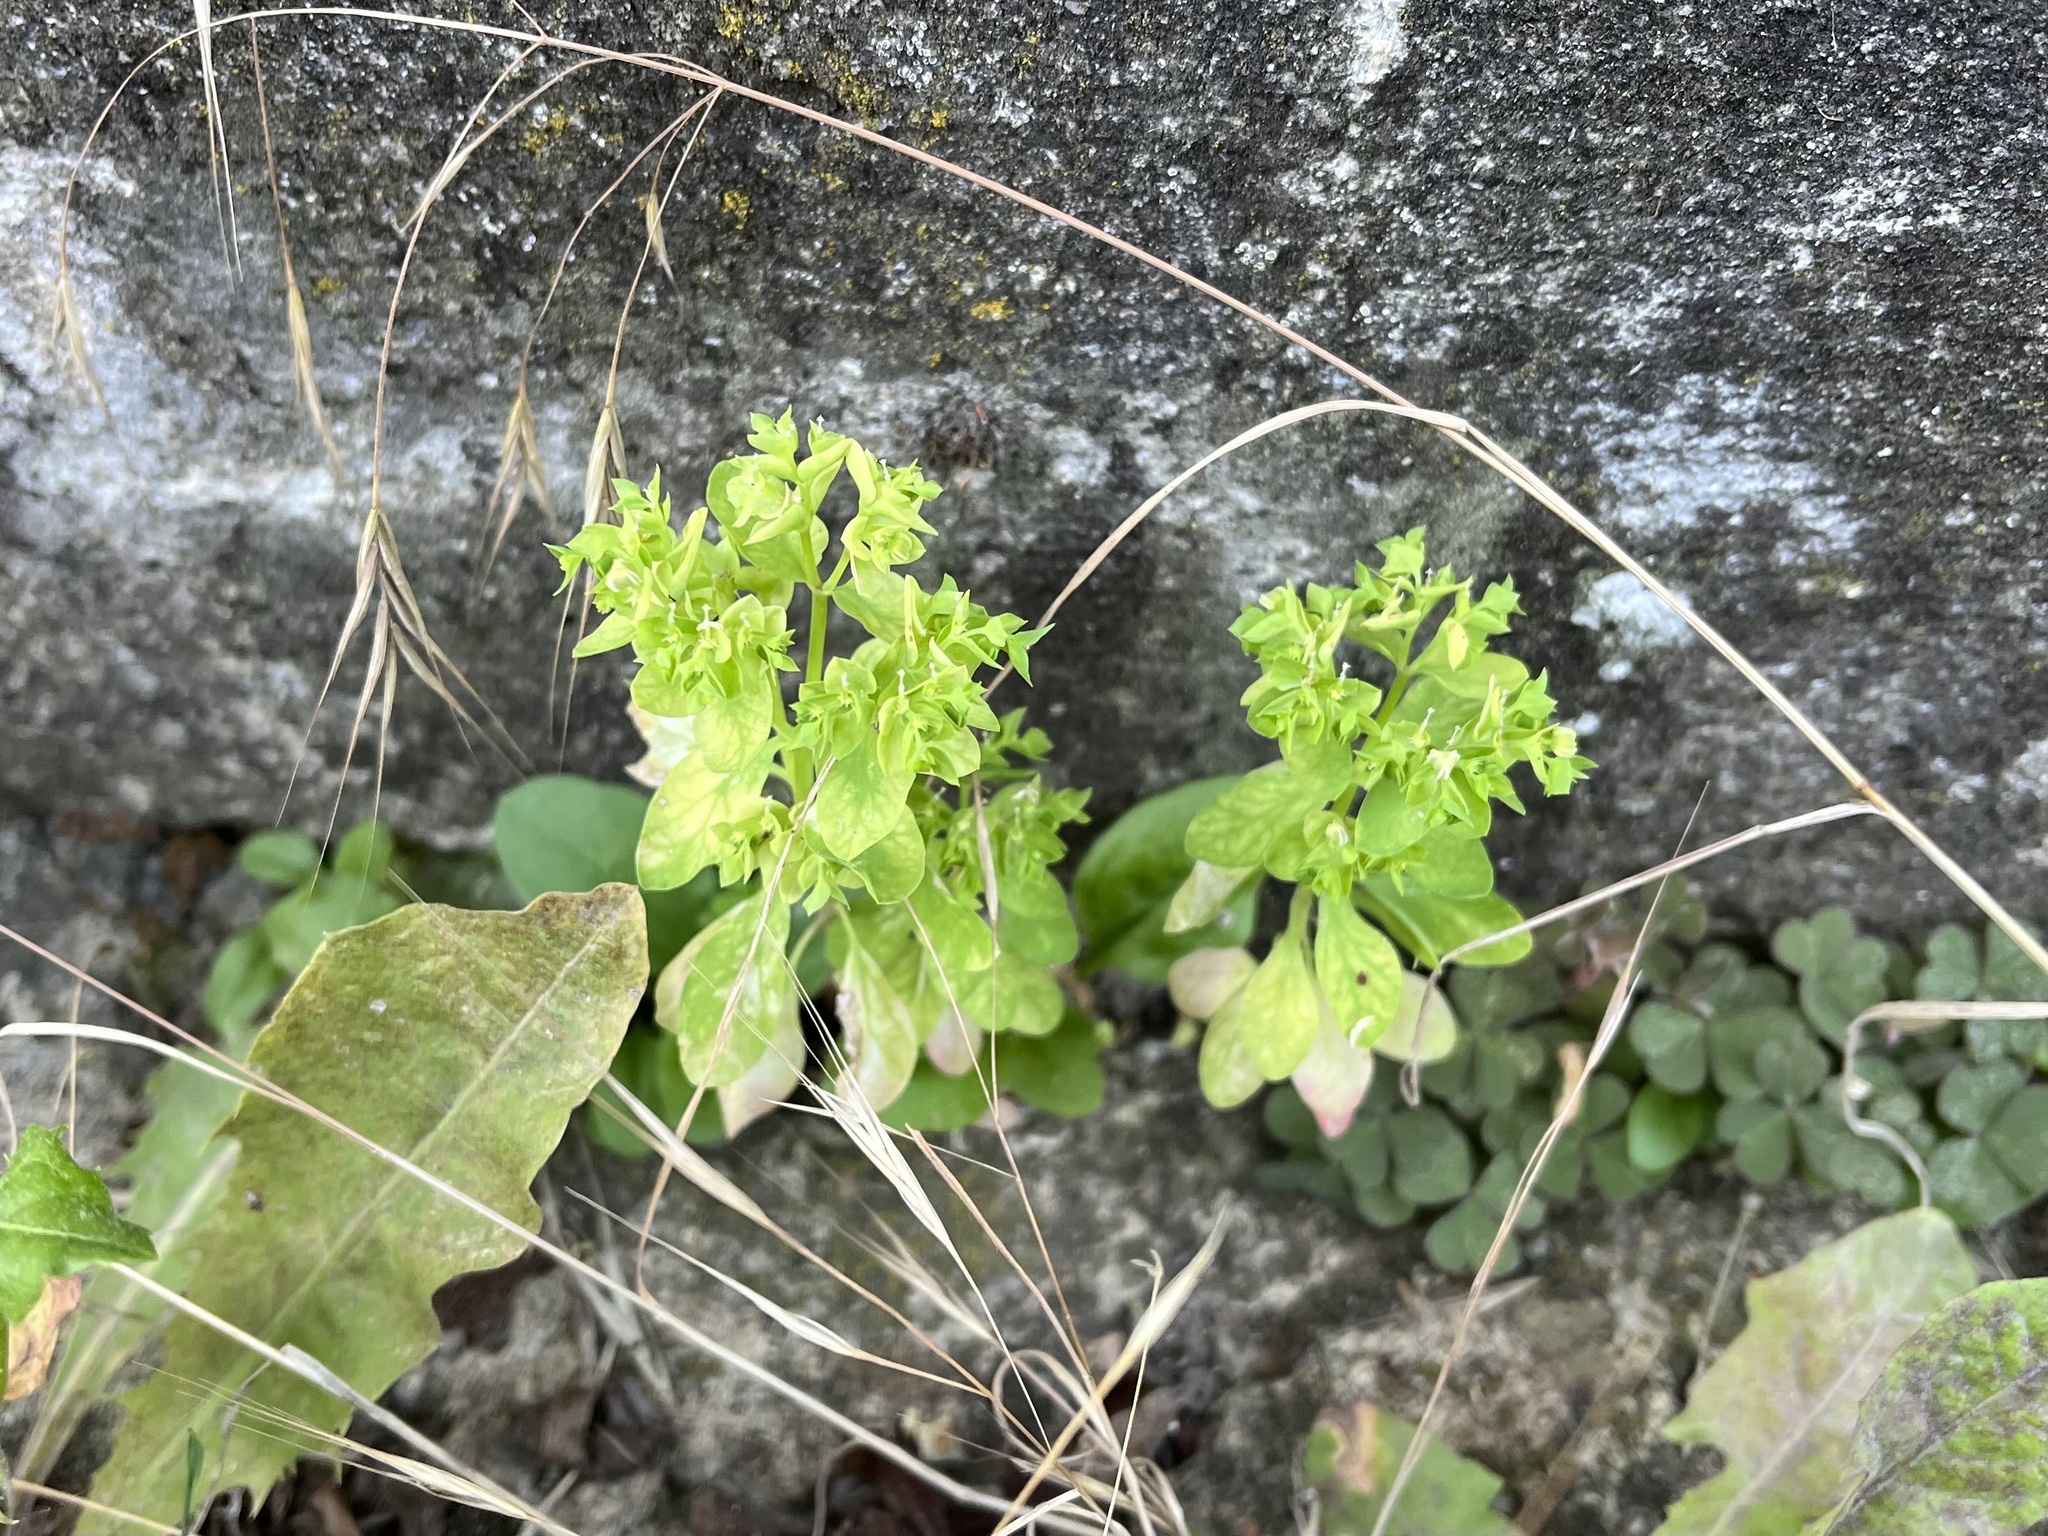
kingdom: Plantae
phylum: Tracheophyta
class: Magnoliopsida
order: Malpighiales
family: Euphorbiaceae
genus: Euphorbia
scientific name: Euphorbia peplus
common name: Petty spurge
